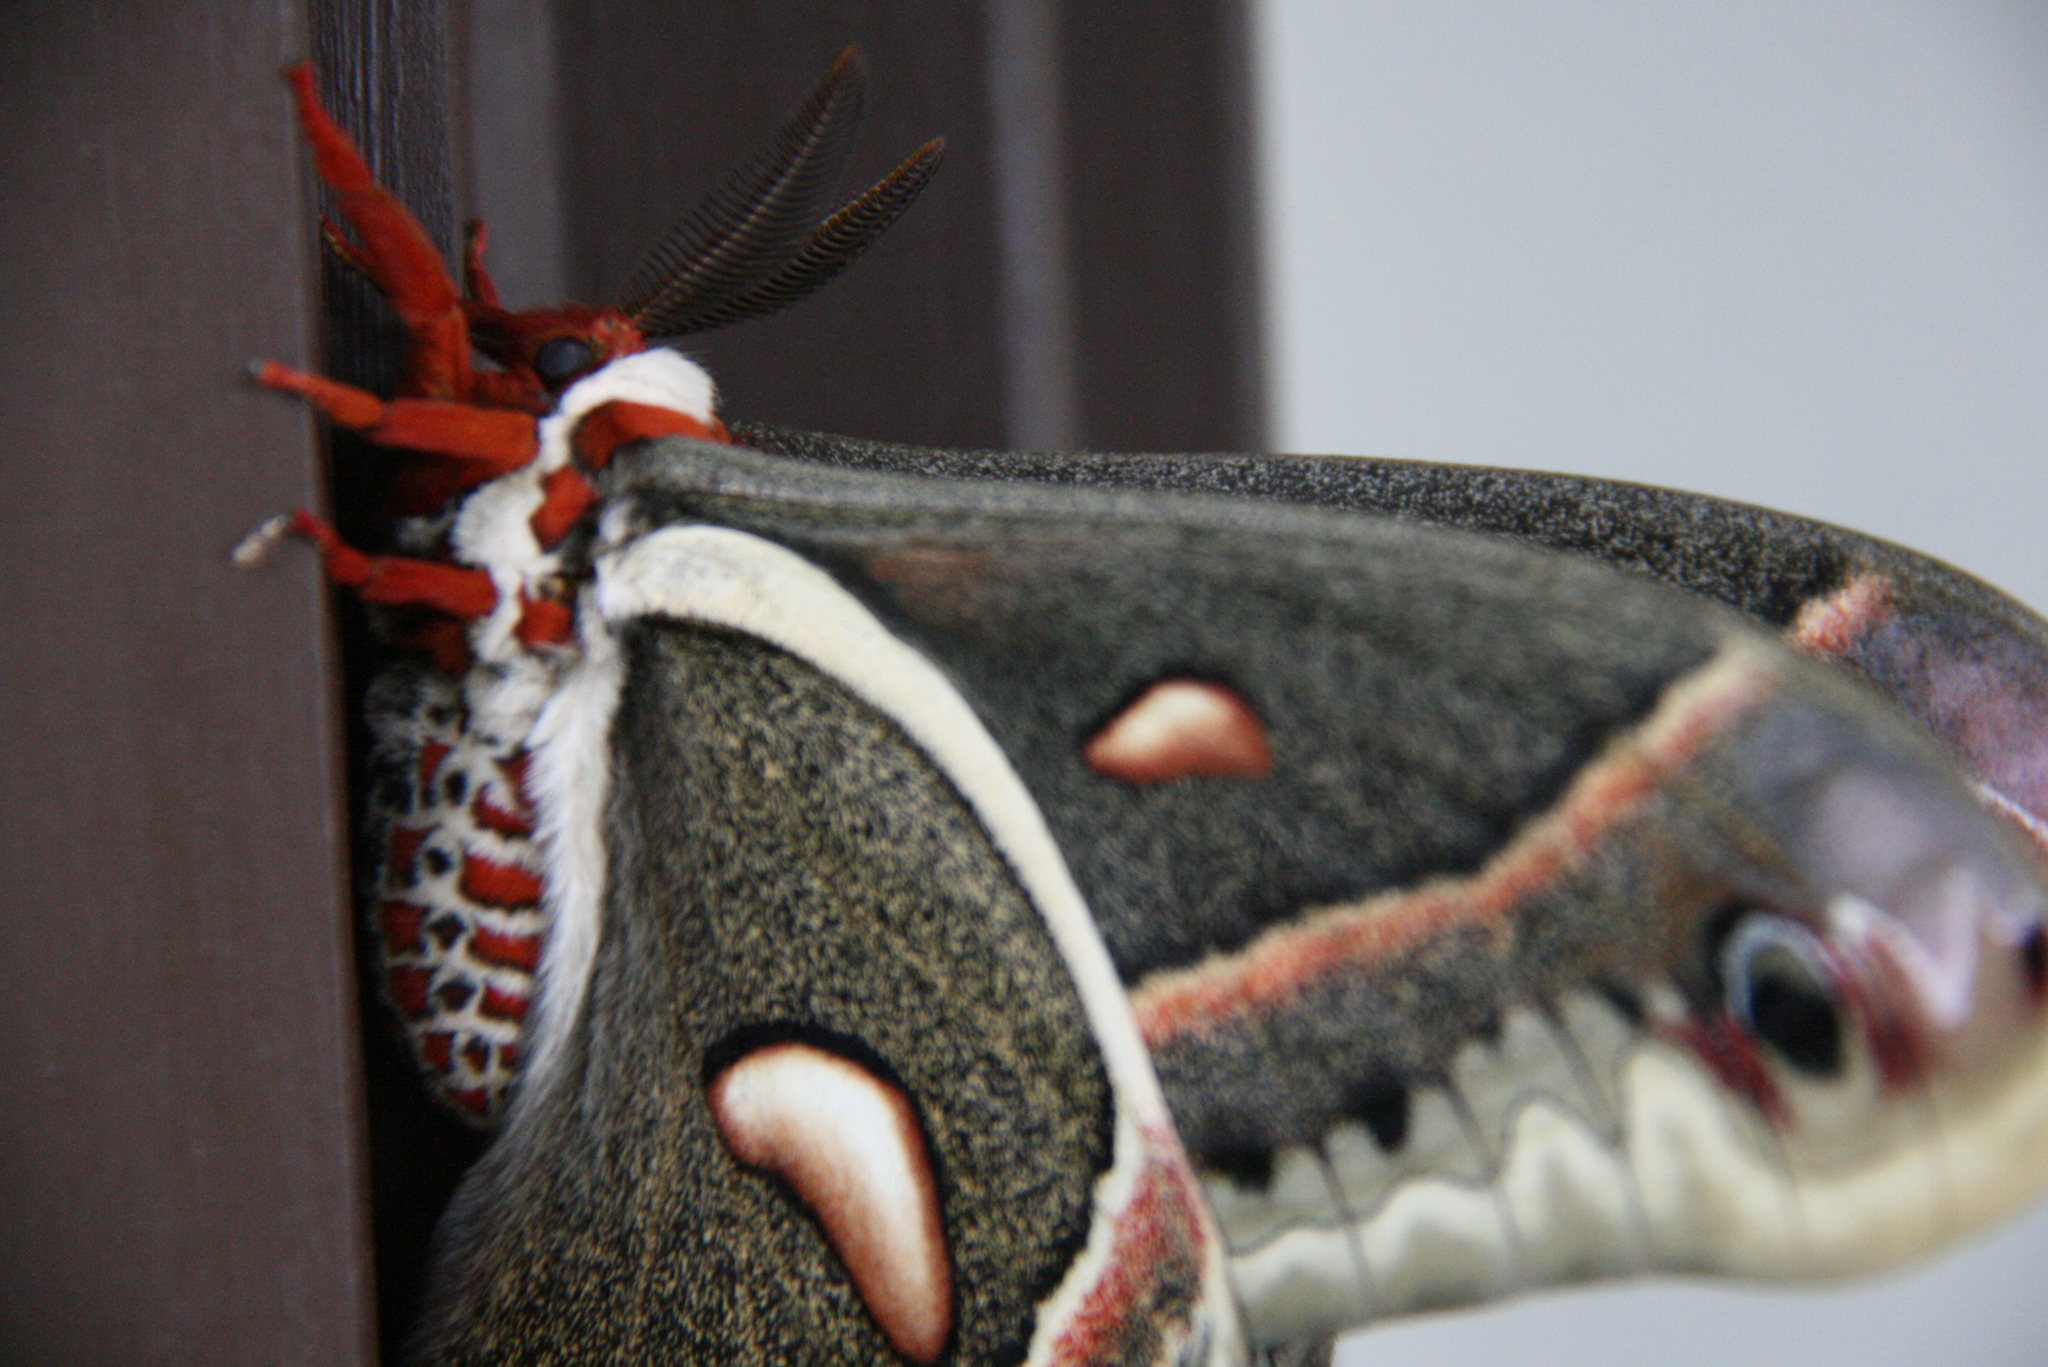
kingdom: Animalia
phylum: Arthropoda
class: Insecta
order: Lepidoptera
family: Saturniidae
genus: Hyalophora
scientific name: Hyalophora cecropia
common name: Cecropia silkmoth
